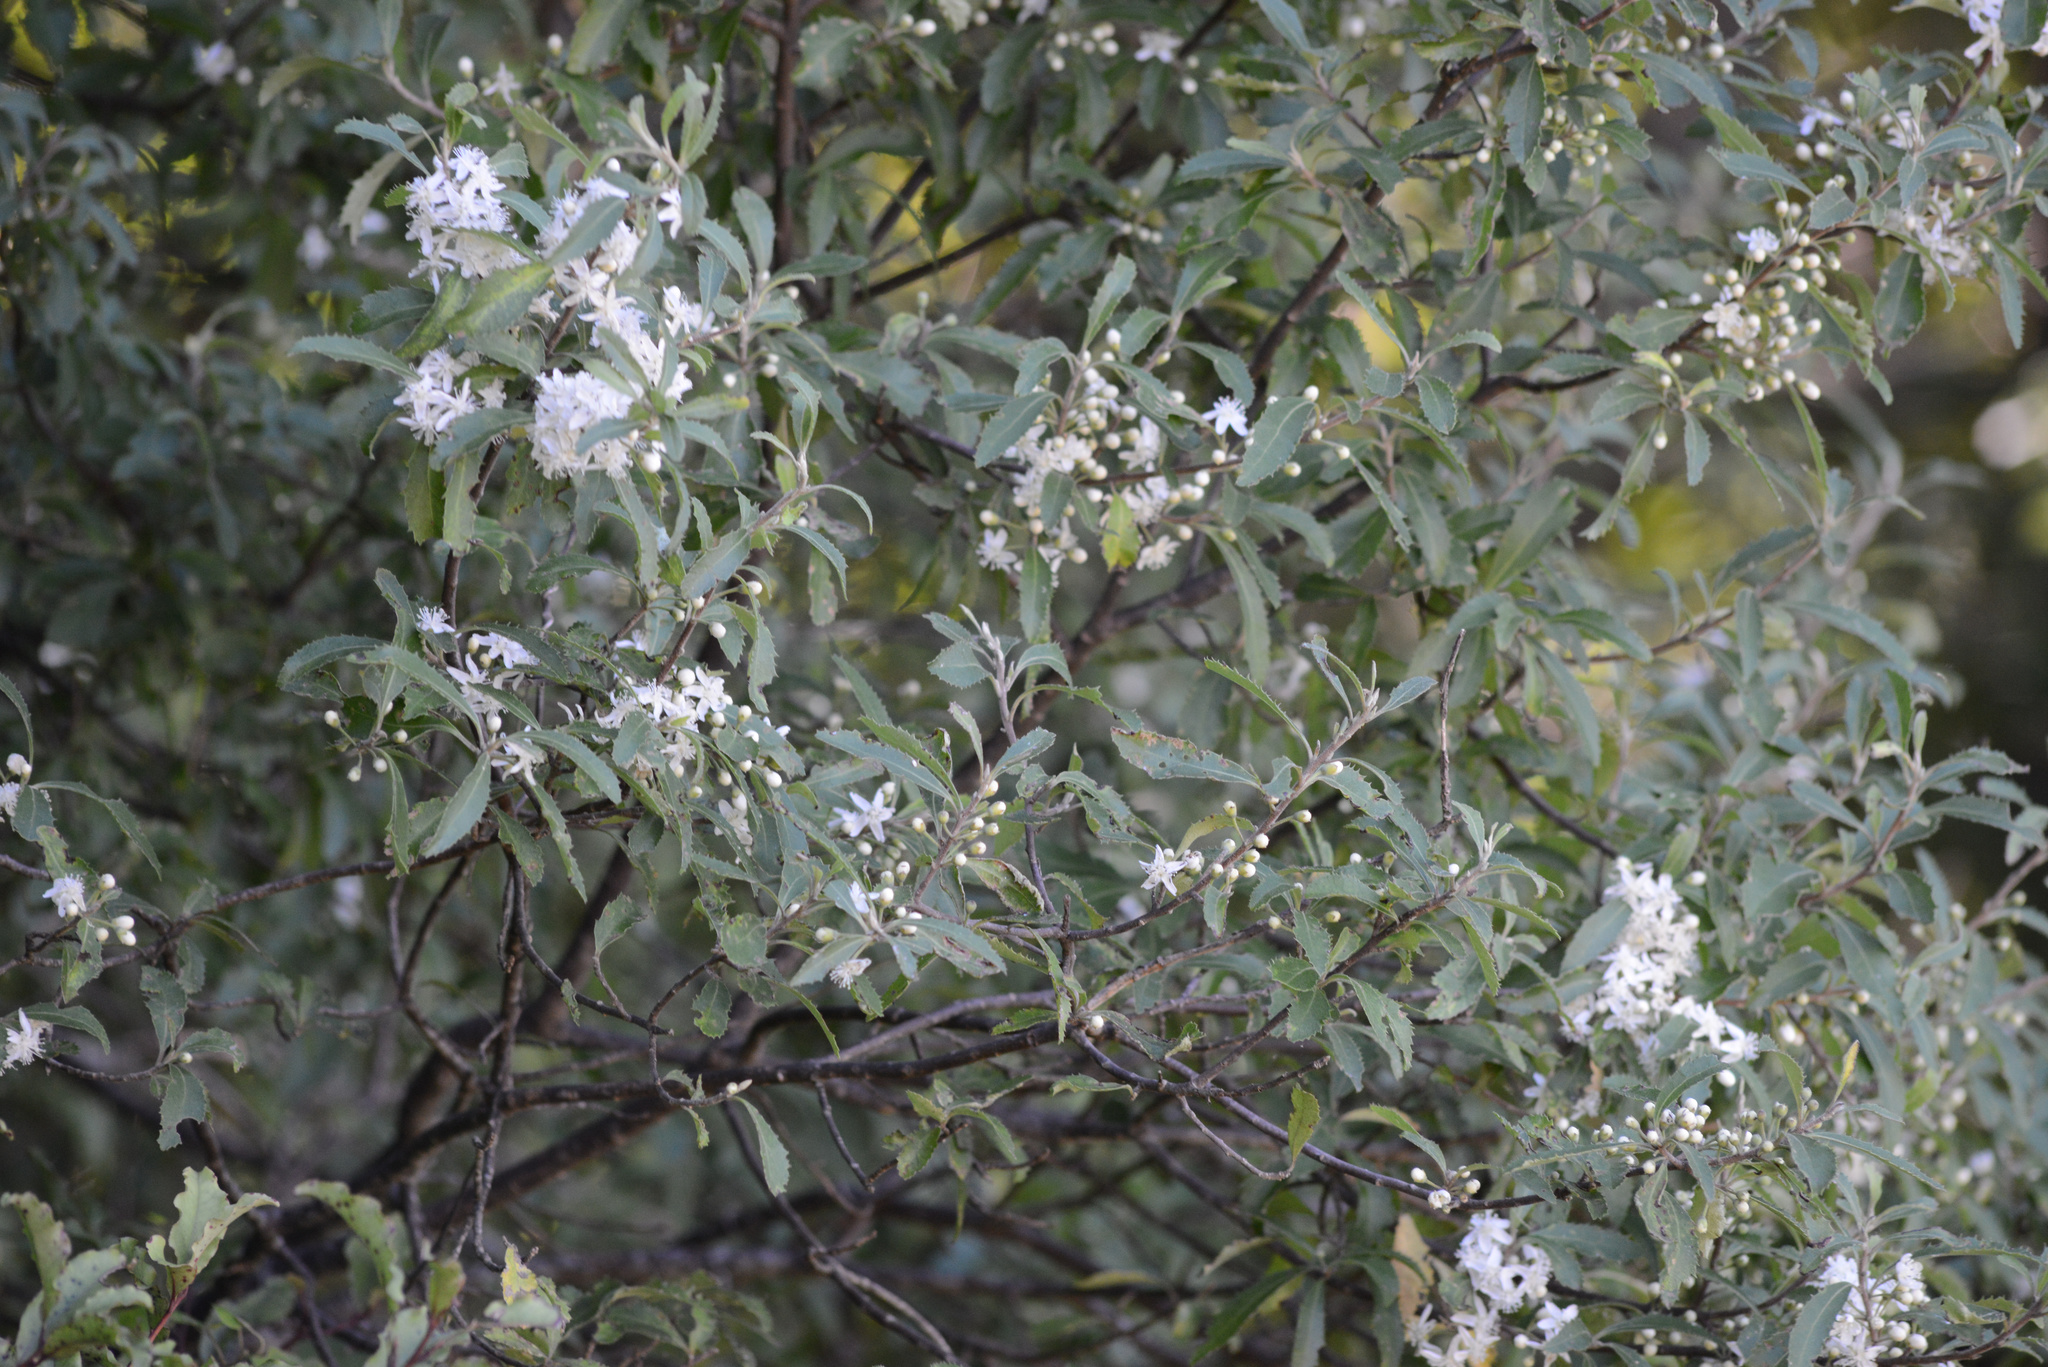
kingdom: Plantae
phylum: Tracheophyta
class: Magnoliopsida
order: Malvales
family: Malvaceae
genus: Hoheria
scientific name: Hoheria angustifolia
